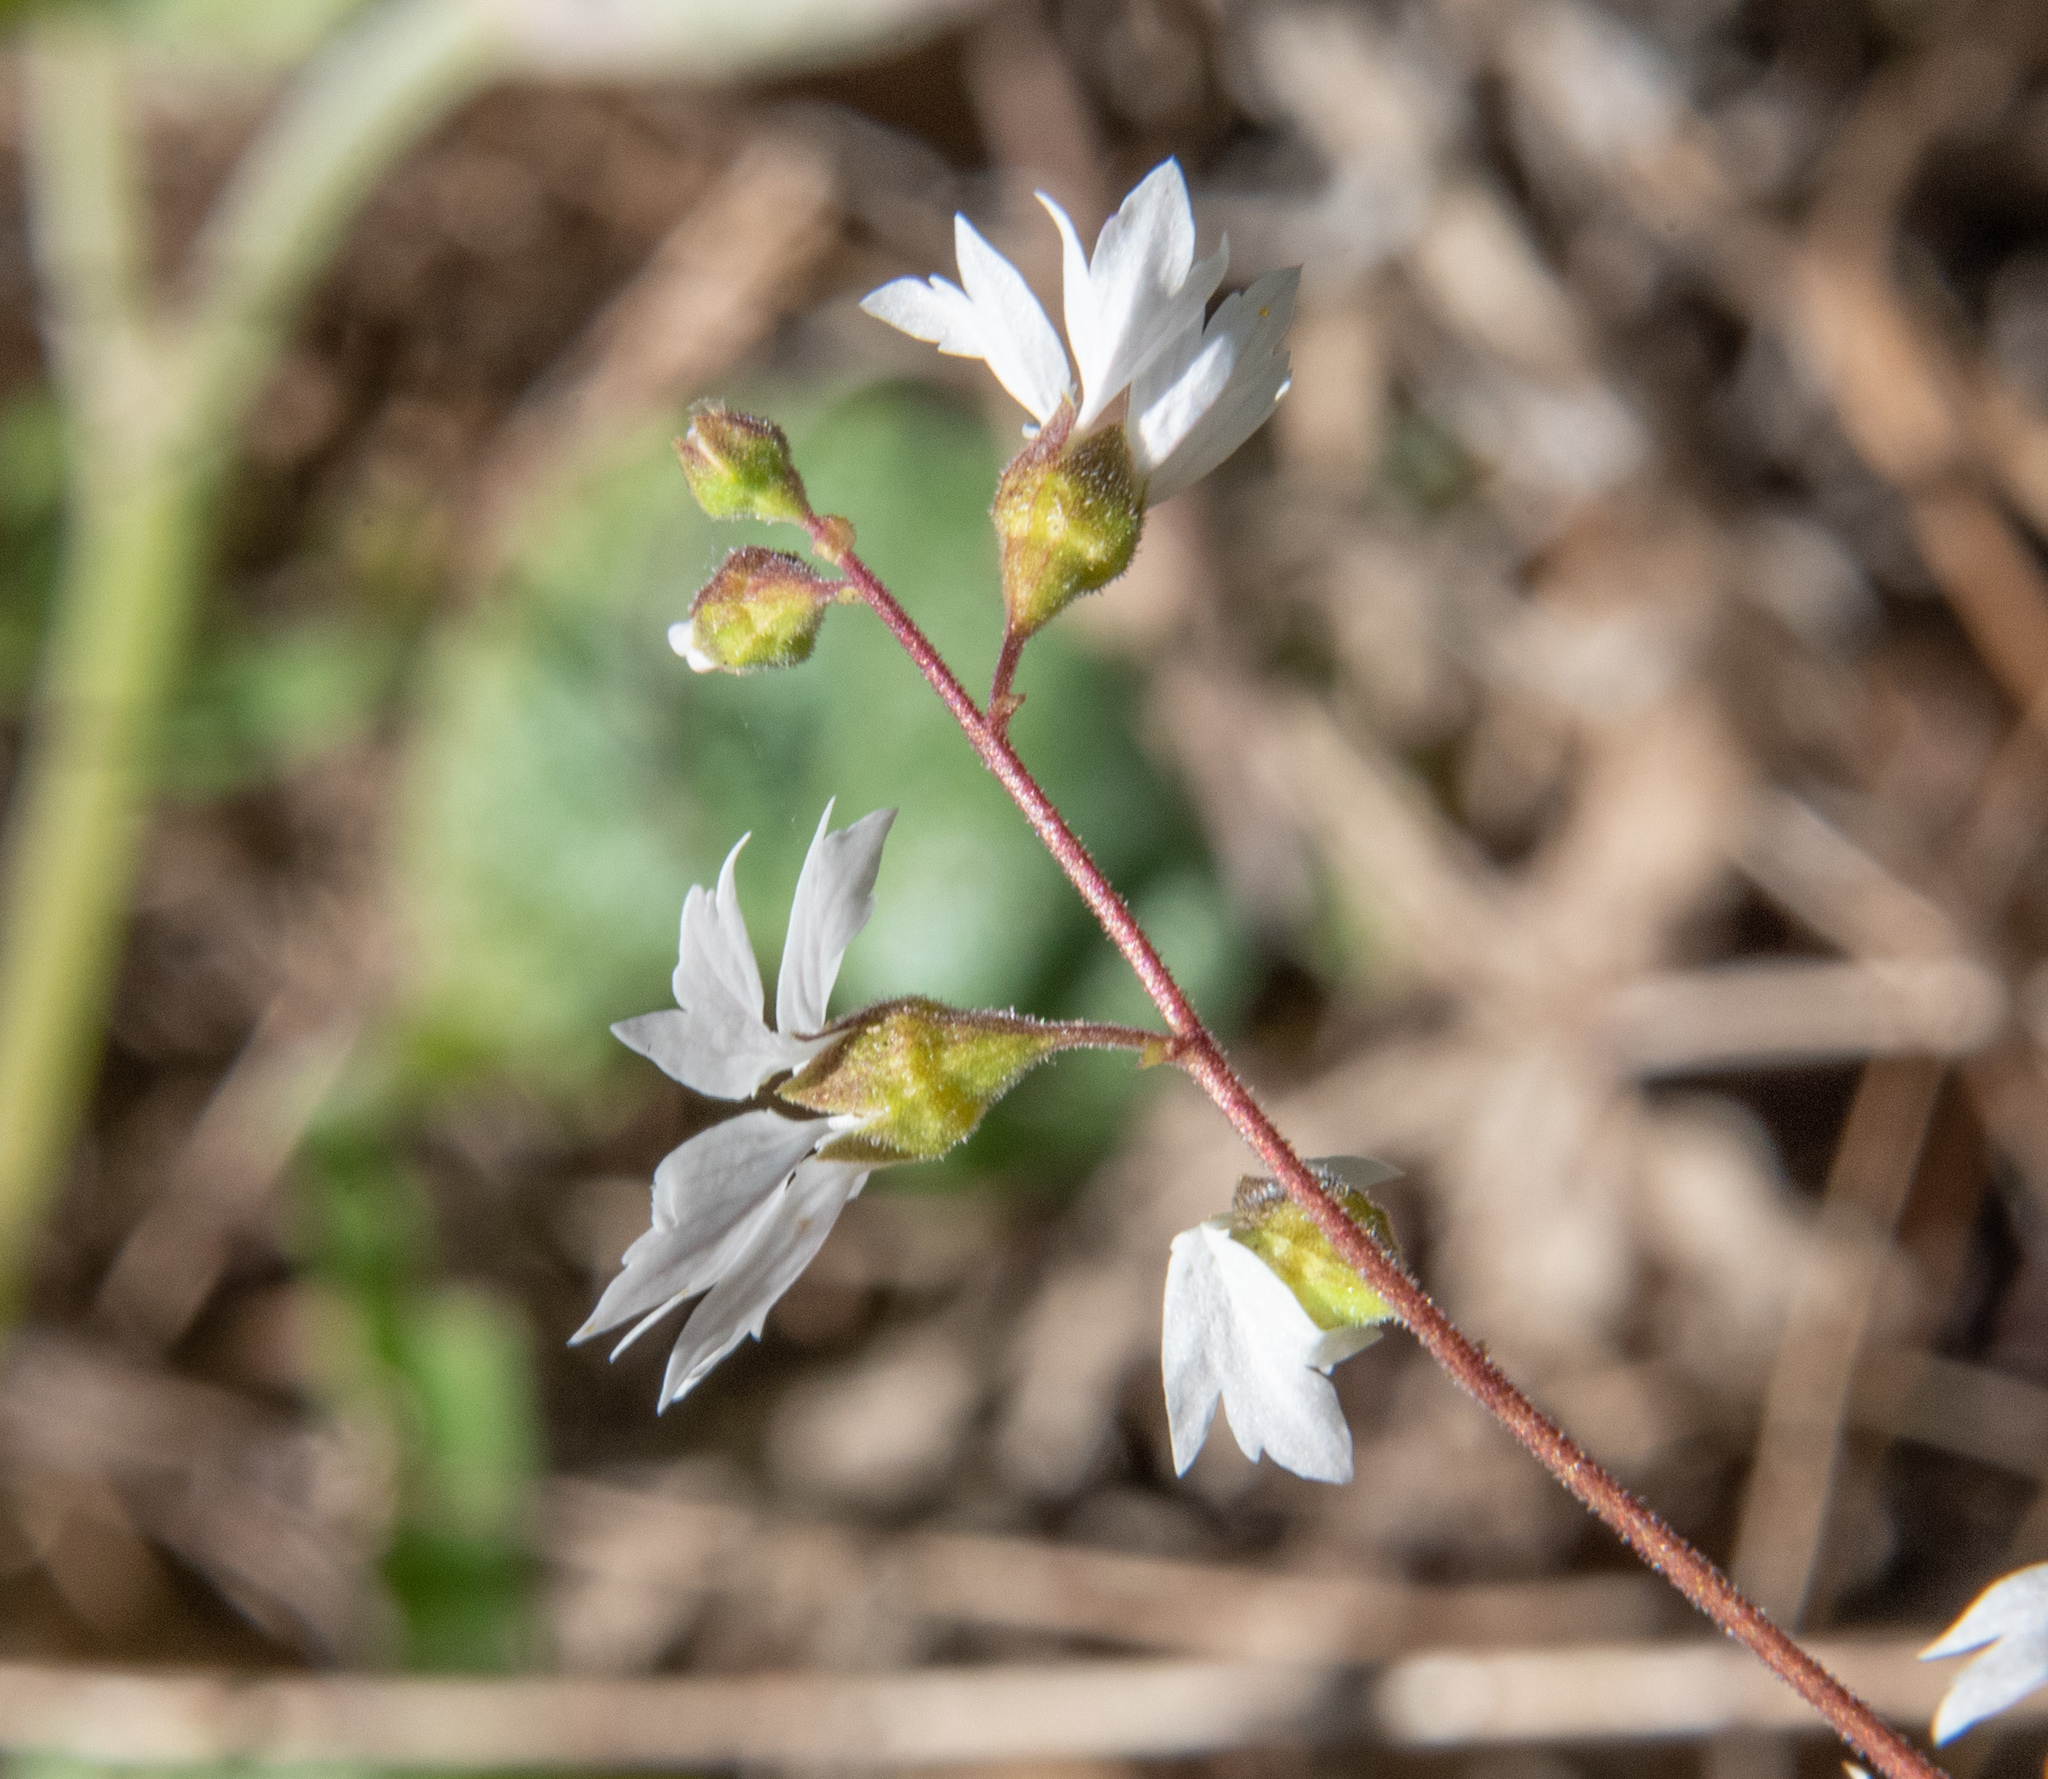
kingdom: Plantae
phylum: Tracheophyta
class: Magnoliopsida
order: Saxifragales
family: Saxifragaceae
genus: Lithophragma
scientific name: Lithophragma affine
